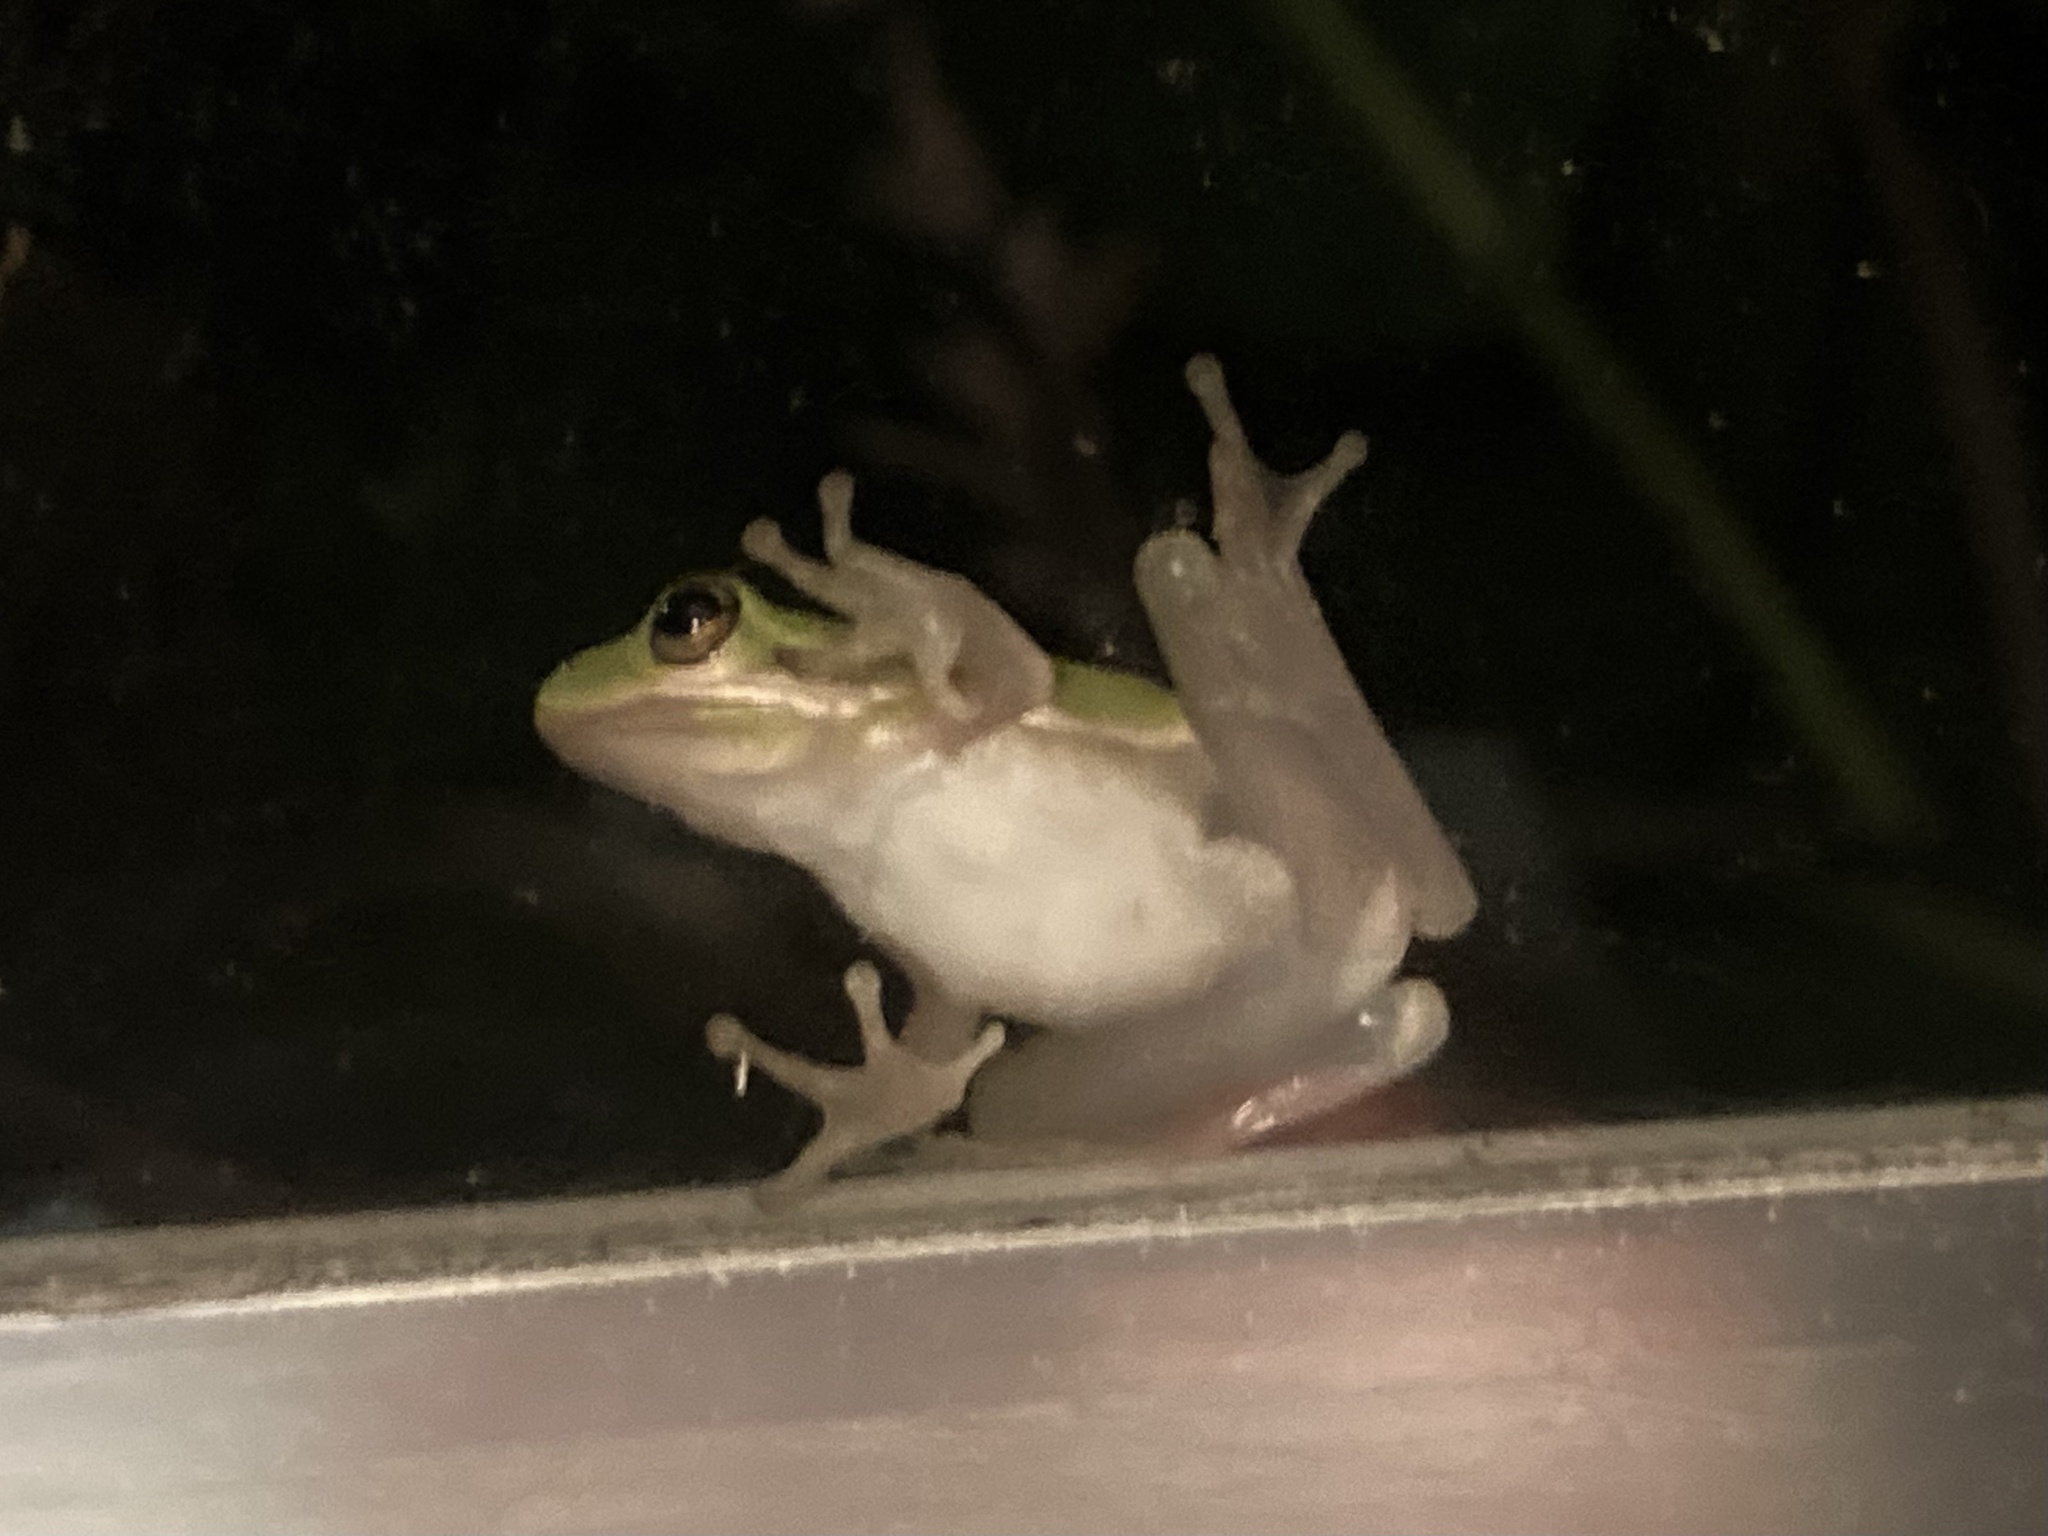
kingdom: Animalia
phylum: Chordata
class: Amphibia
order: Anura
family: Hylidae
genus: Dryophytes
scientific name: Dryophytes cinereus
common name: Green treefrog
